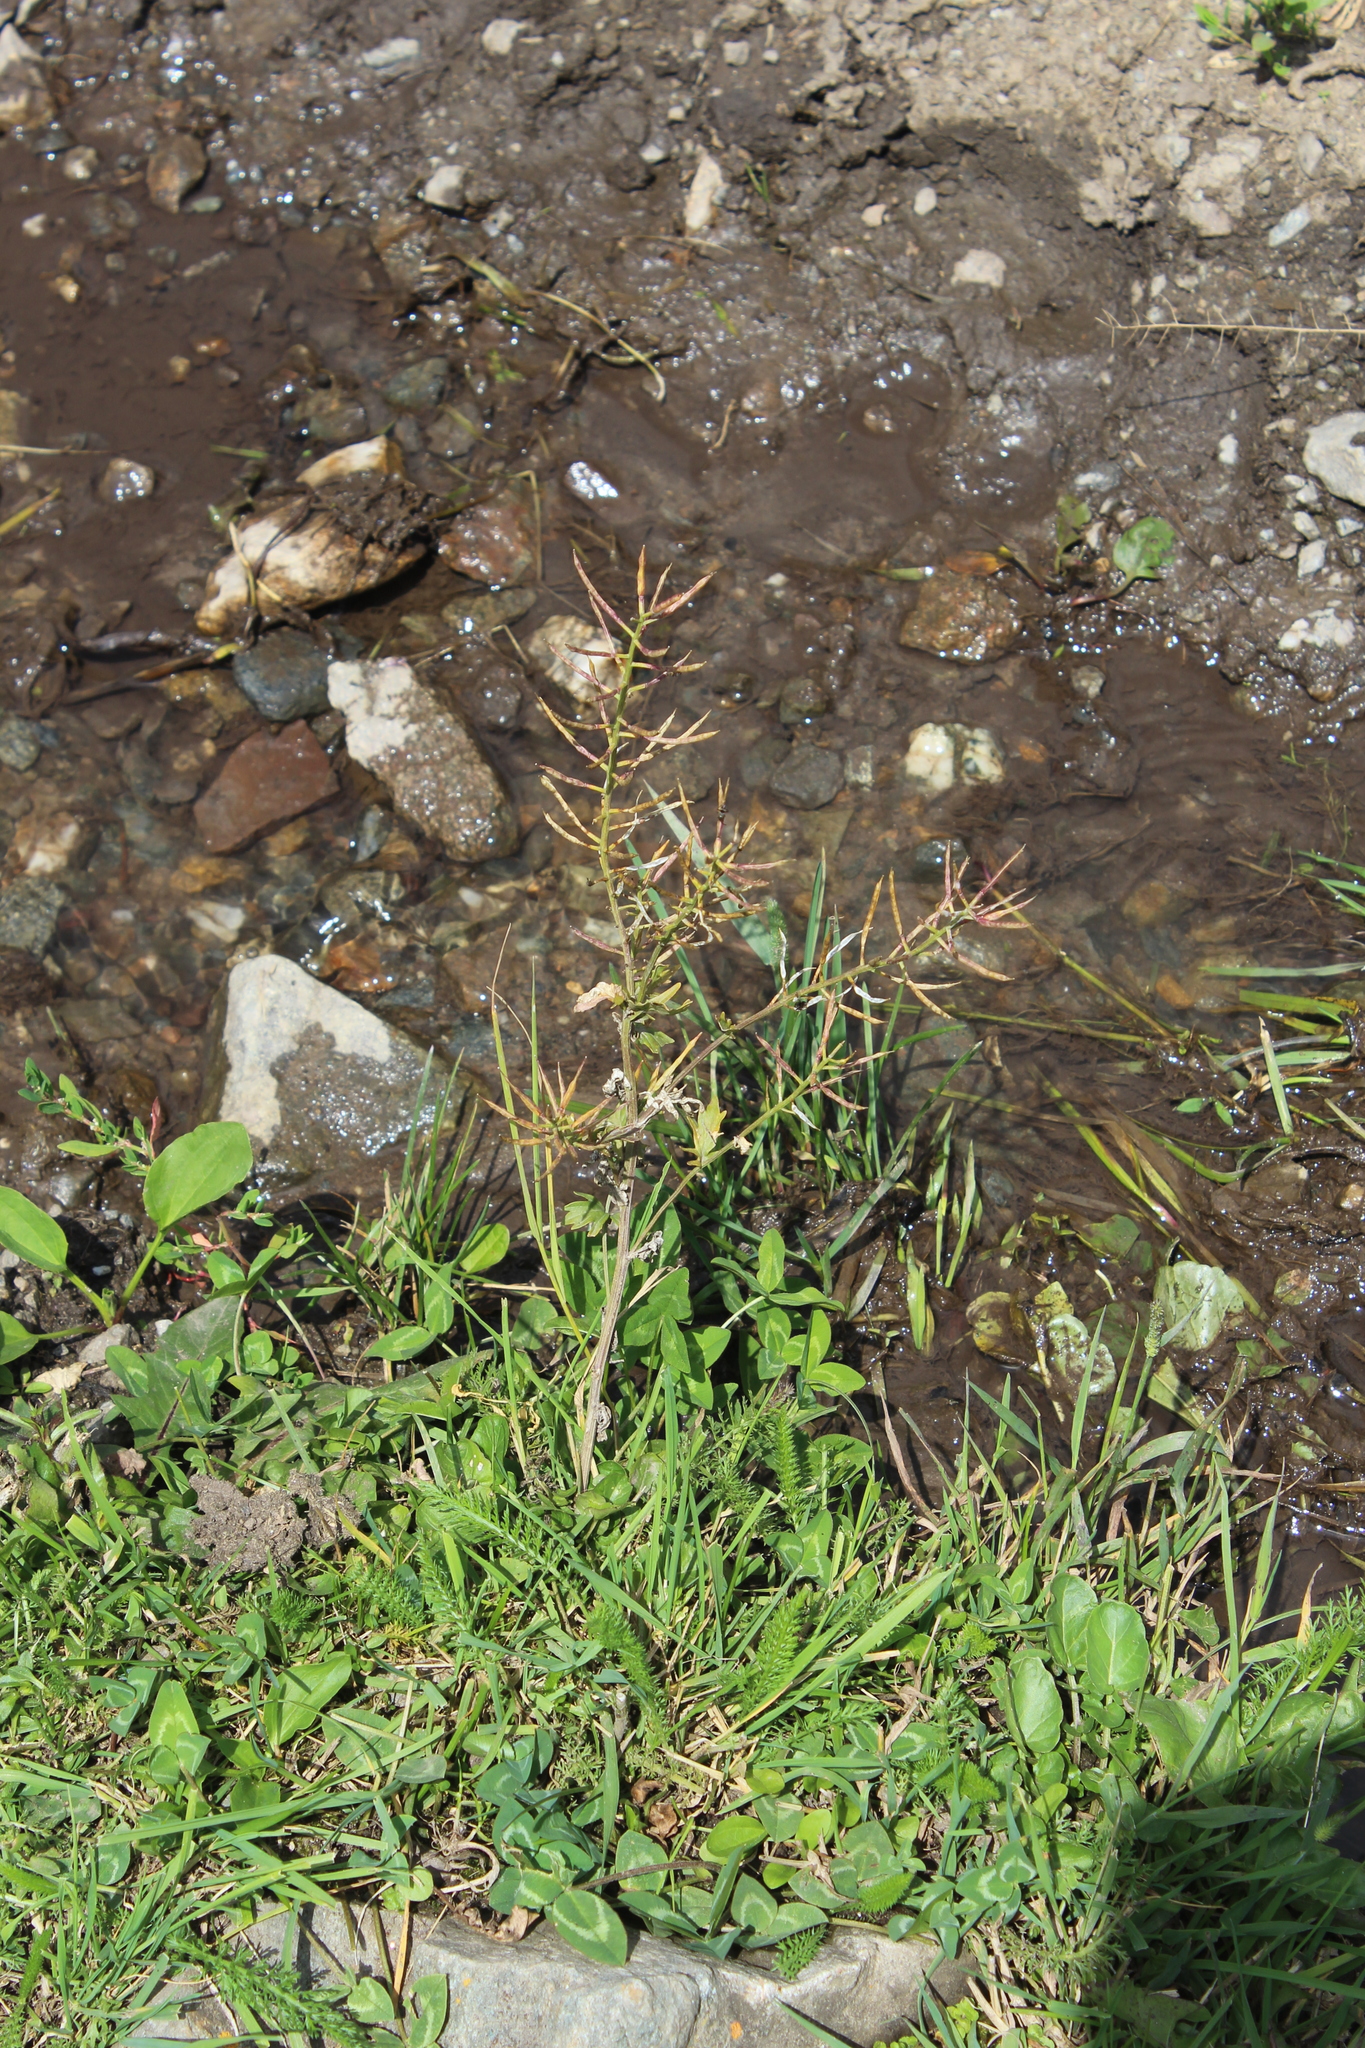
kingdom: Plantae
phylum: Tracheophyta
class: Magnoliopsida
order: Brassicales
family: Brassicaceae
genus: Barbarea
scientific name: Barbarea vulgaris
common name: Cressy-greens
